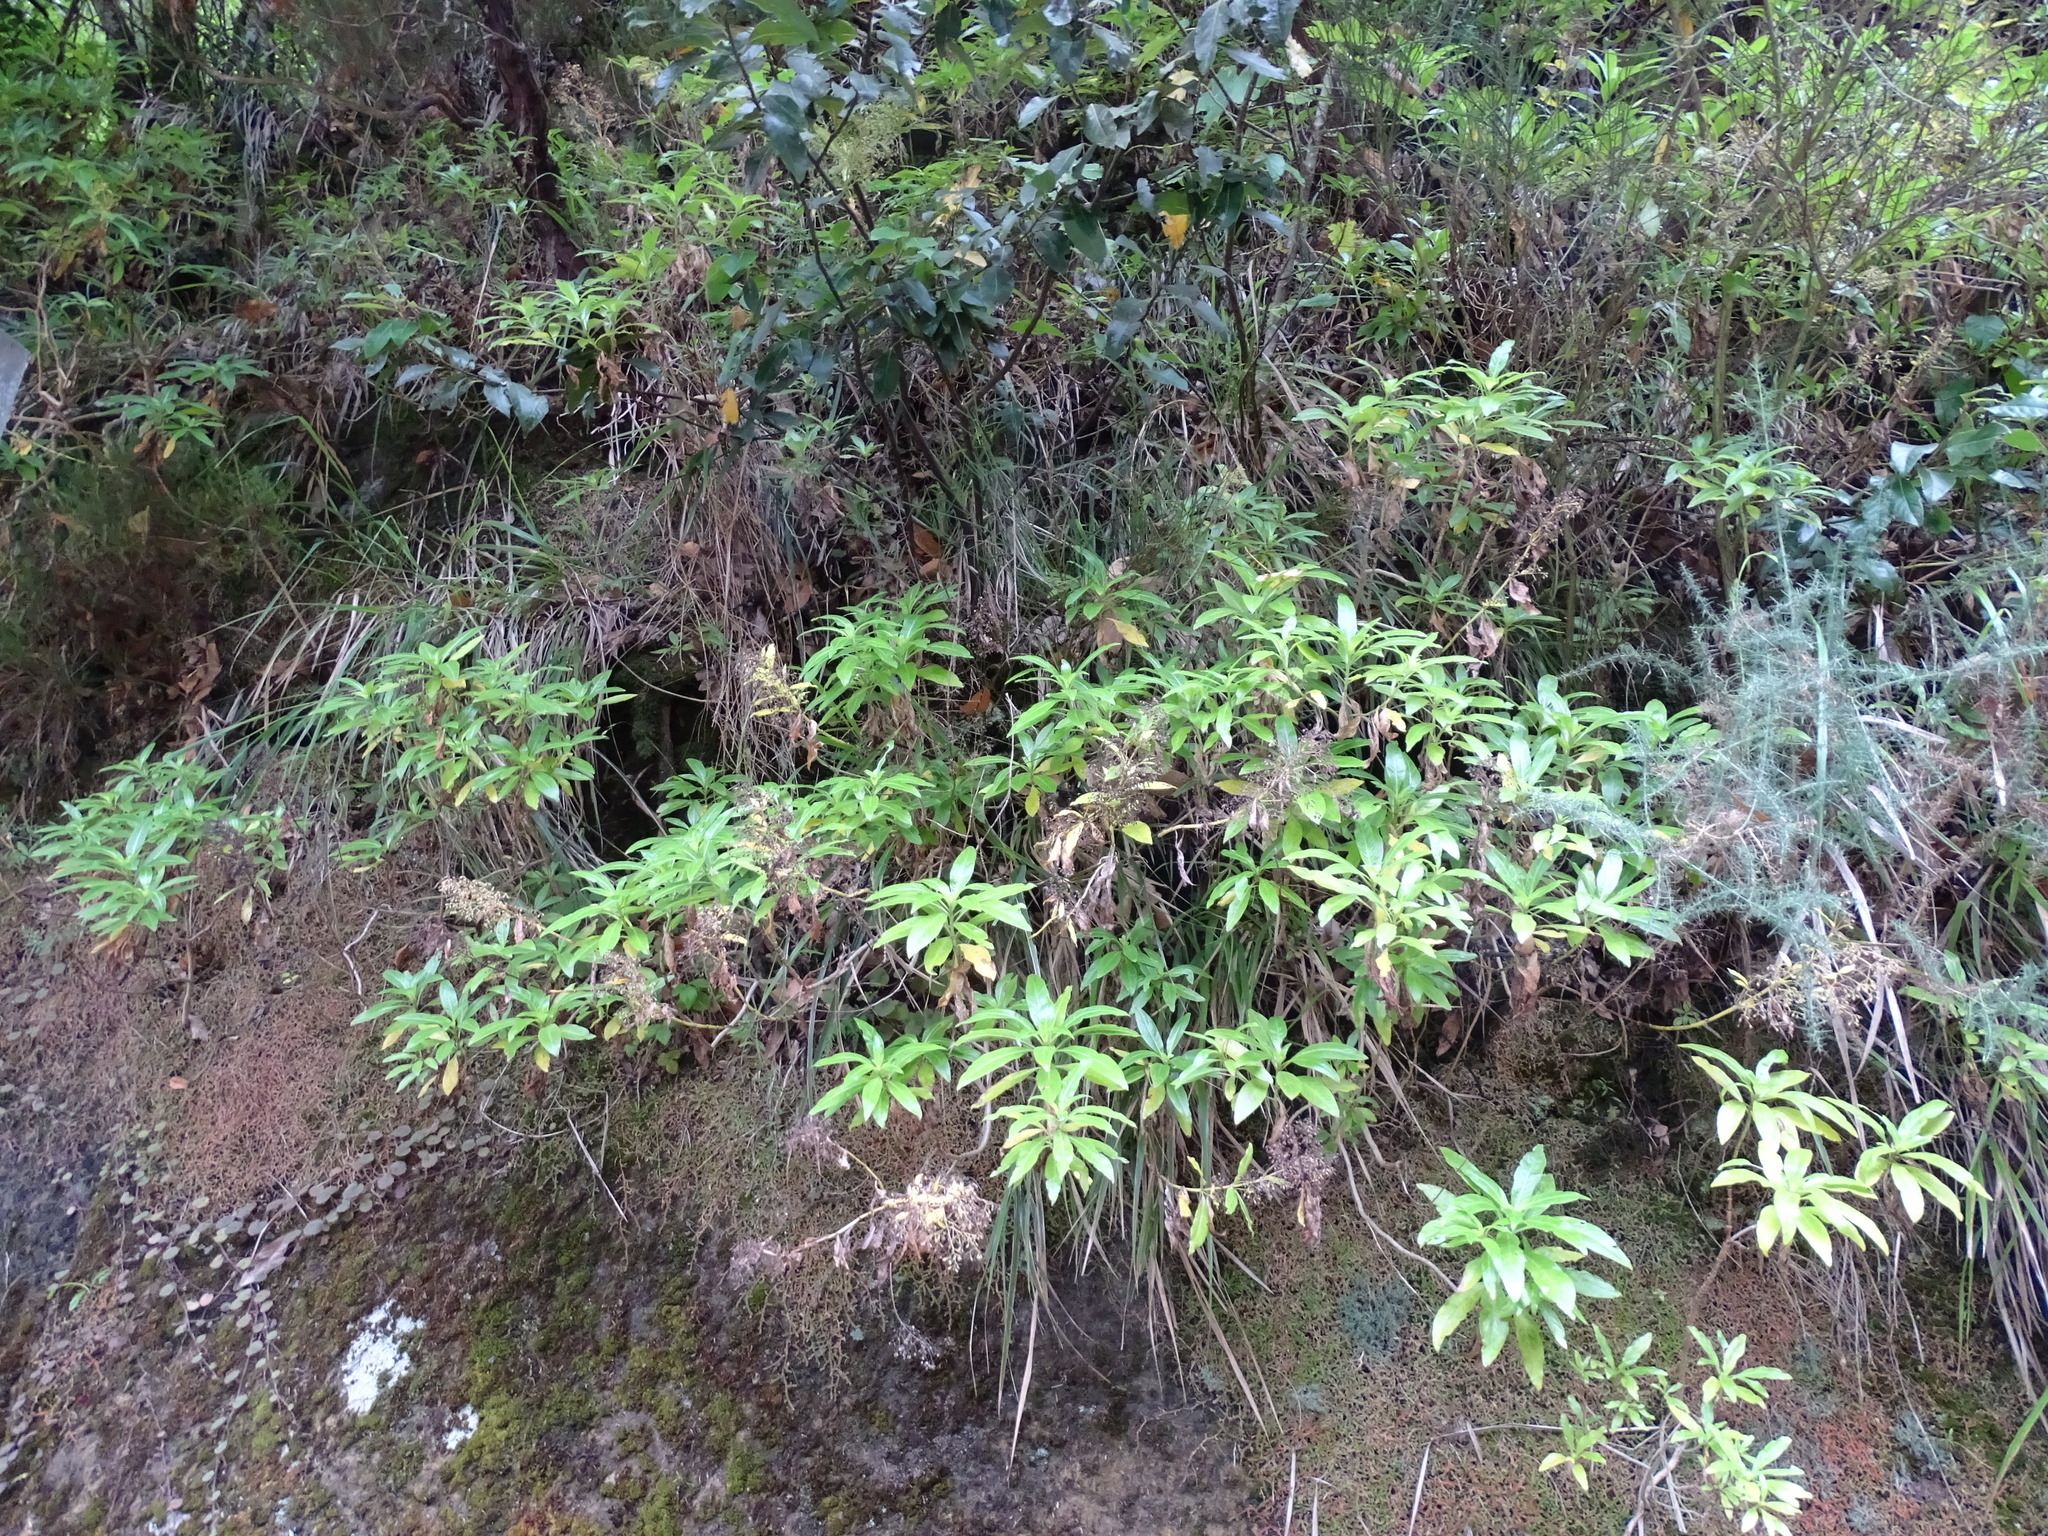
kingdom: Plantae
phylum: Tracheophyta
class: Magnoliopsida
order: Gentianales
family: Rubiaceae
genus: Phyllis
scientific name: Phyllis nobla
